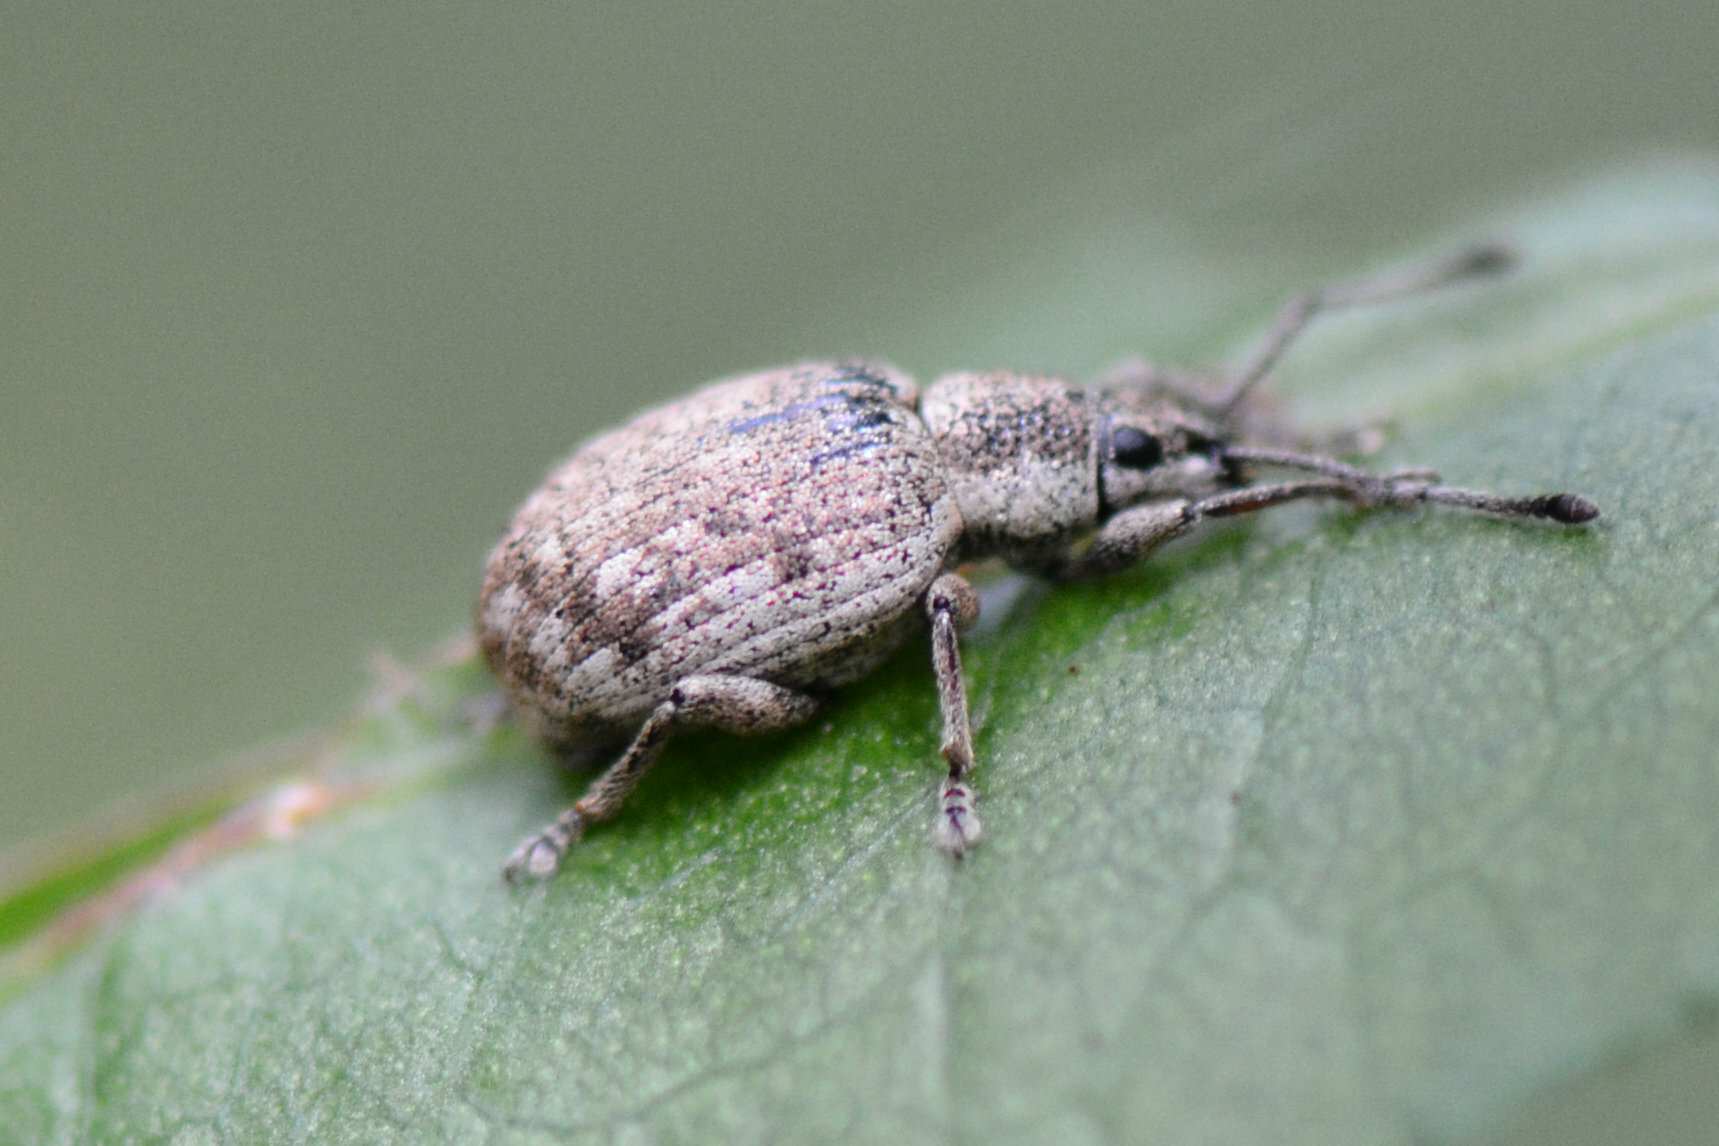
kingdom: Animalia
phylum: Arthropoda
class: Insecta
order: Coleoptera
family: Curculionidae
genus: Peritelus
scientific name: Peritelus sphaeroides
